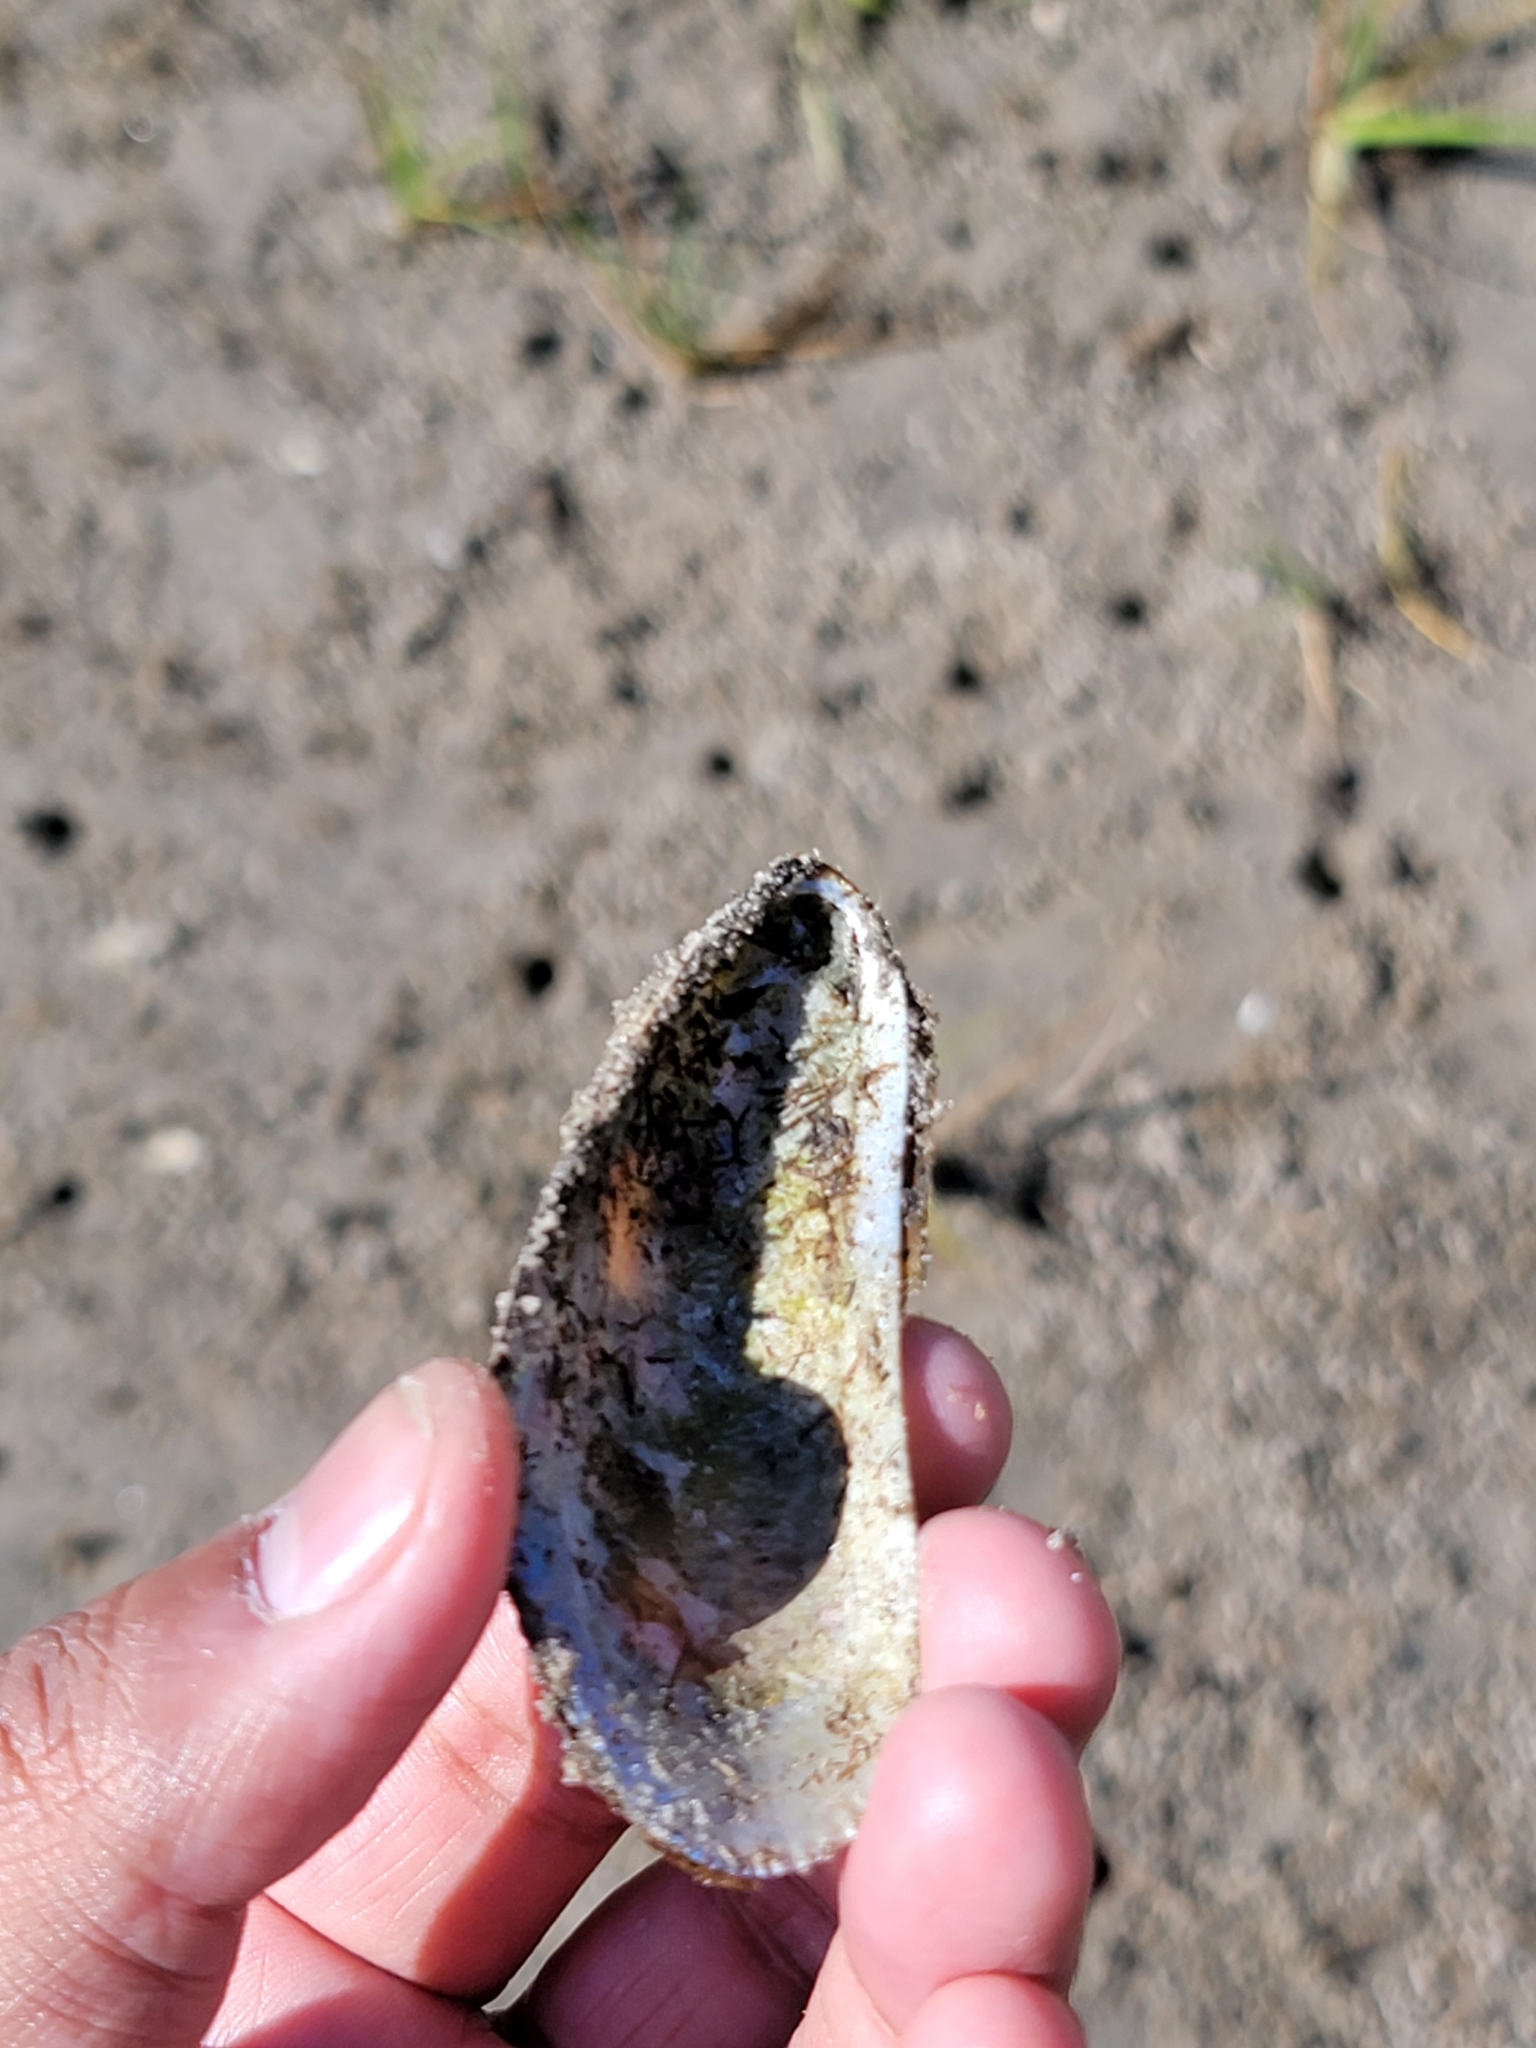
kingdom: Animalia
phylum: Mollusca
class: Bivalvia
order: Mytilida
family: Mytilidae
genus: Geukensia
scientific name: Geukensia demissa
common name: Ribbed mussel
